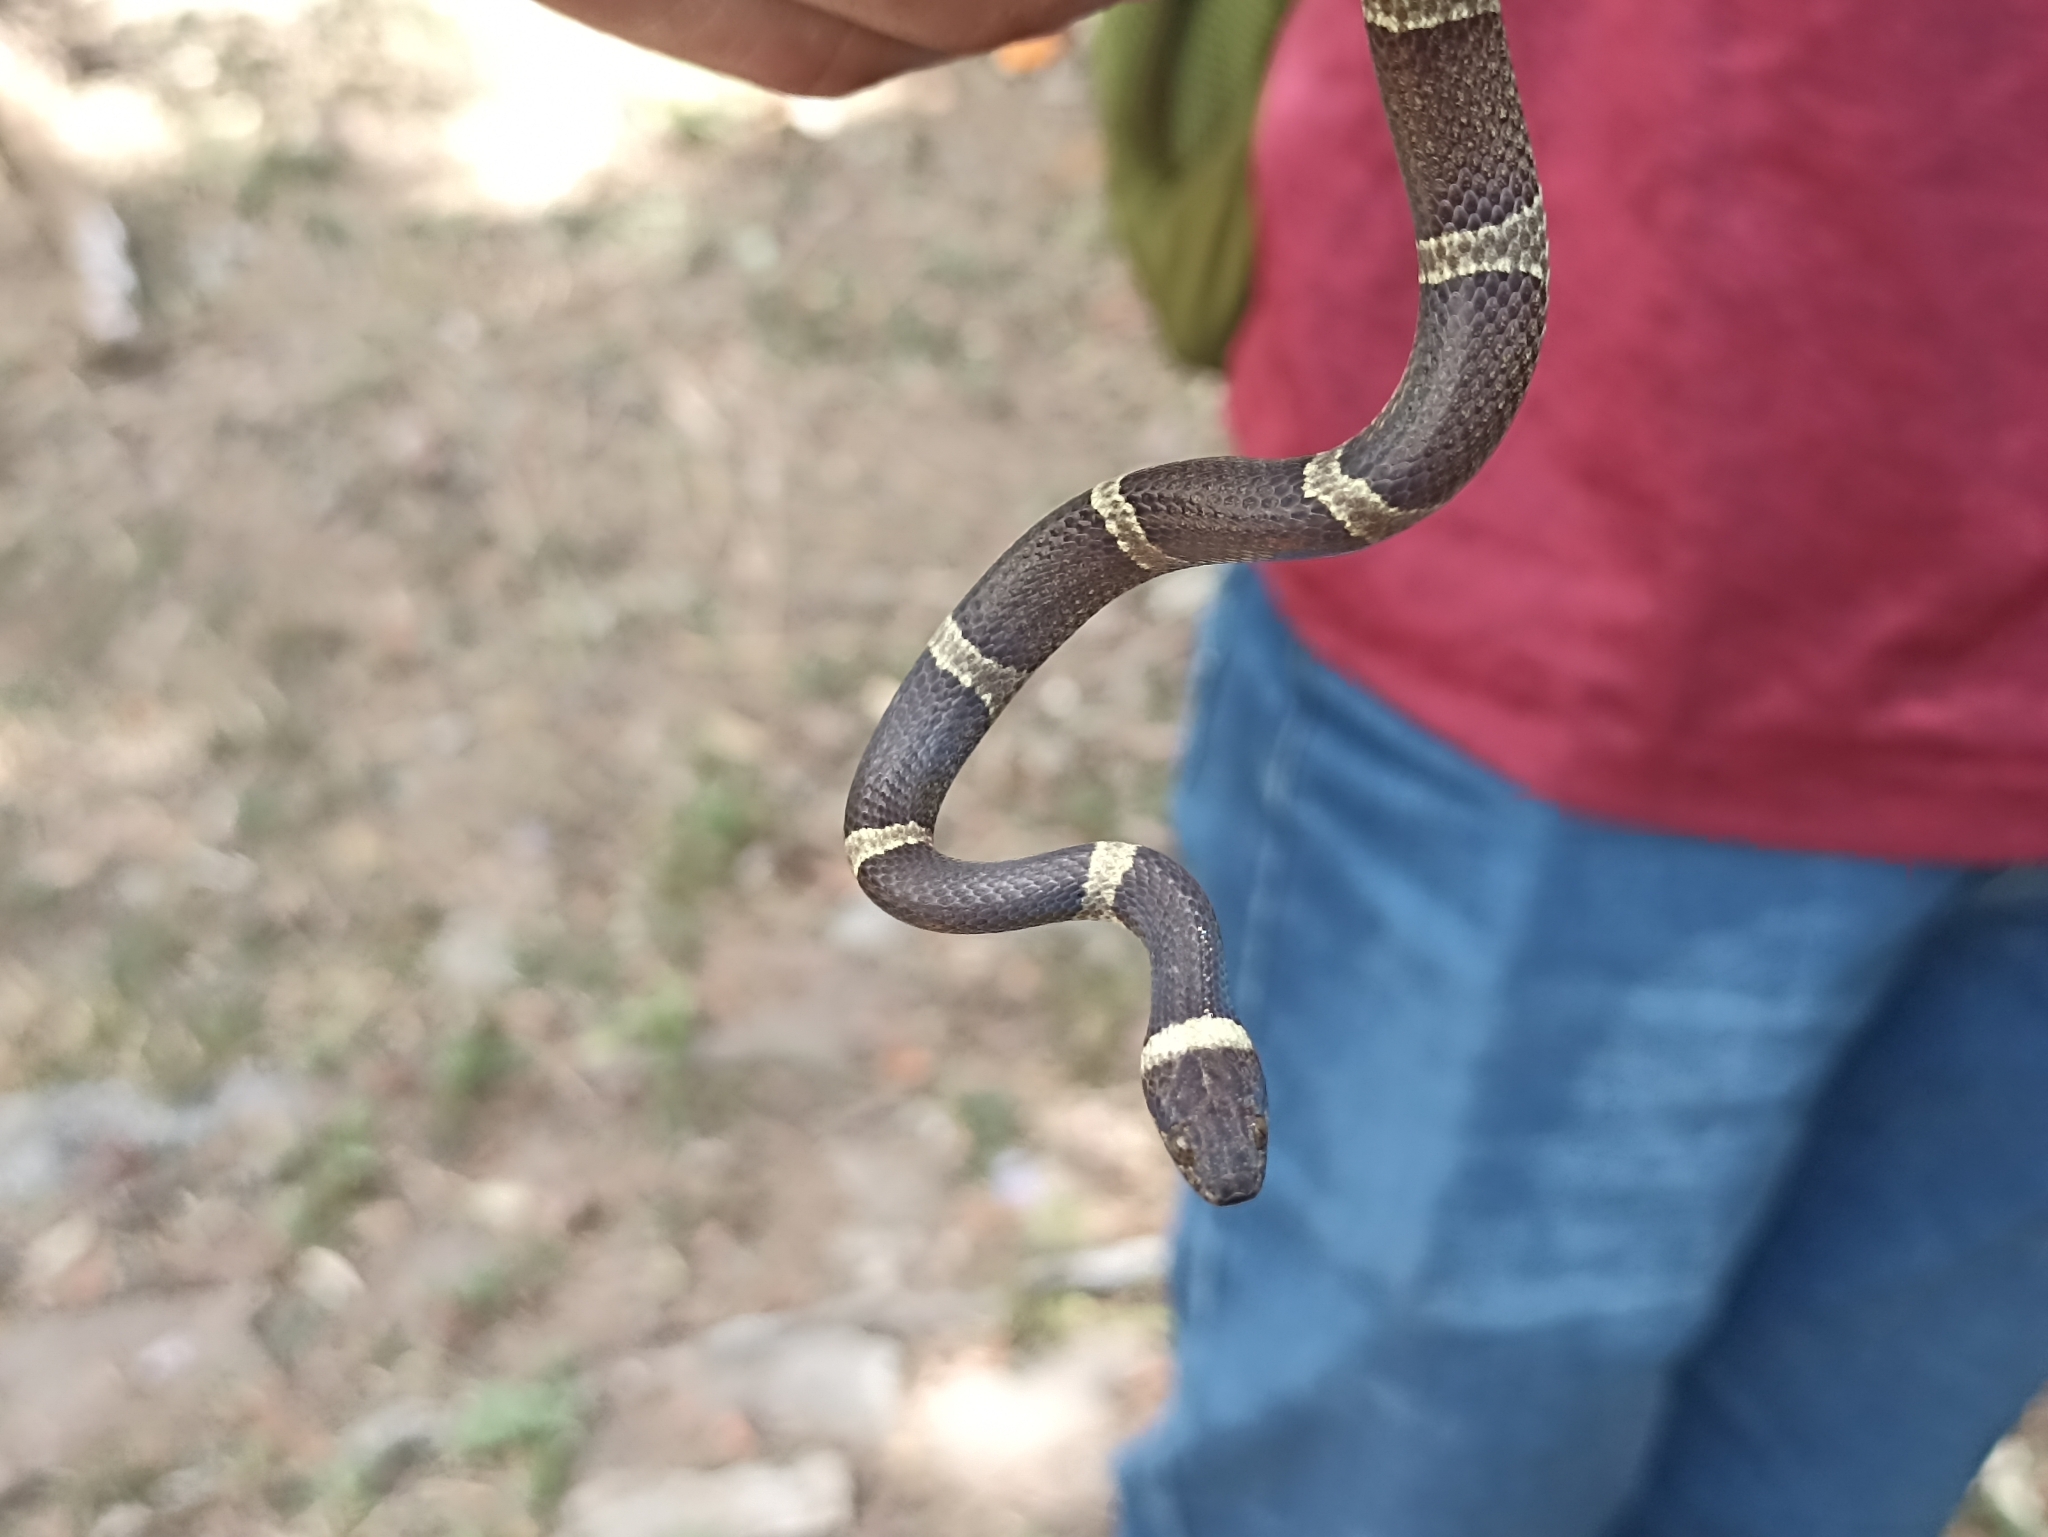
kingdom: Animalia
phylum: Chordata
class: Squamata
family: Colubridae
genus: Leptodeira
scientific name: Leptodeira nigrofasciata
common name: Black-banded cat-eyed snake
